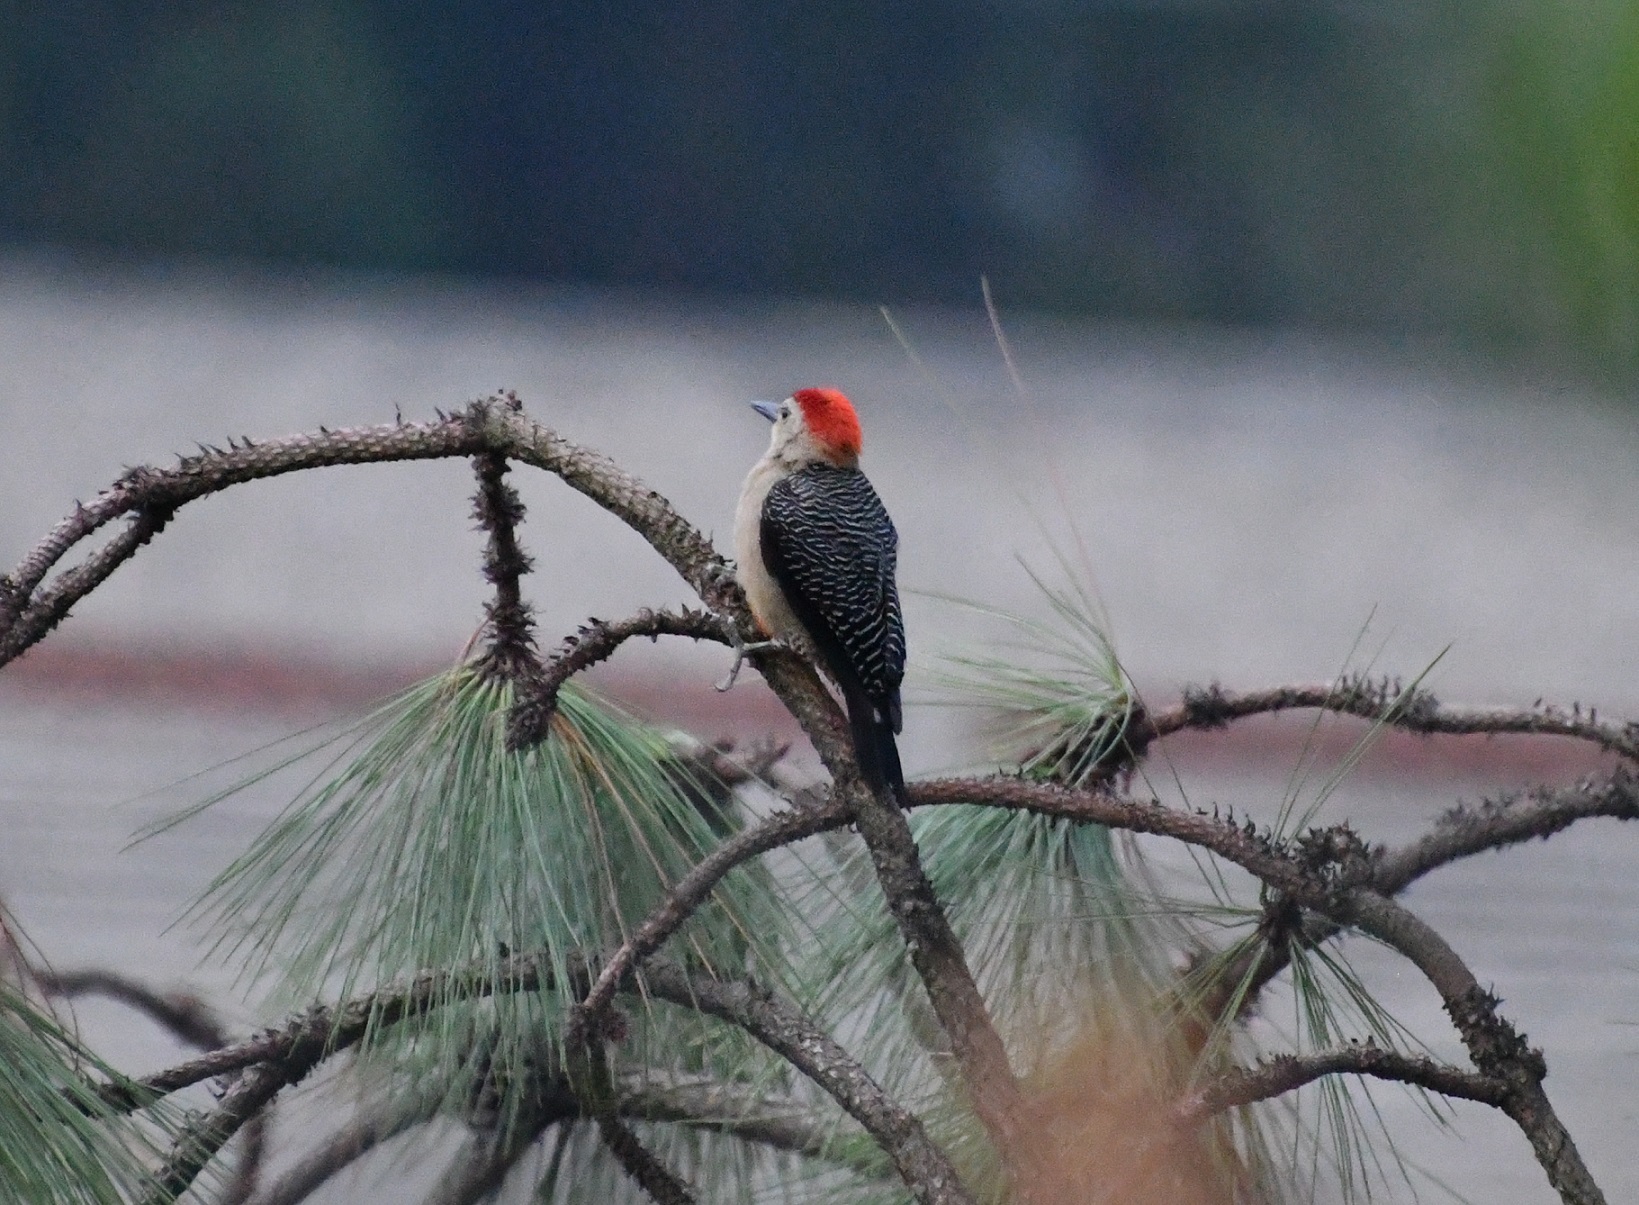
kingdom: Animalia
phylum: Chordata
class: Aves
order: Piciformes
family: Picidae
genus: Melanerpes
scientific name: Melanerpes aurifrons
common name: Golden-fronted woodpecker
